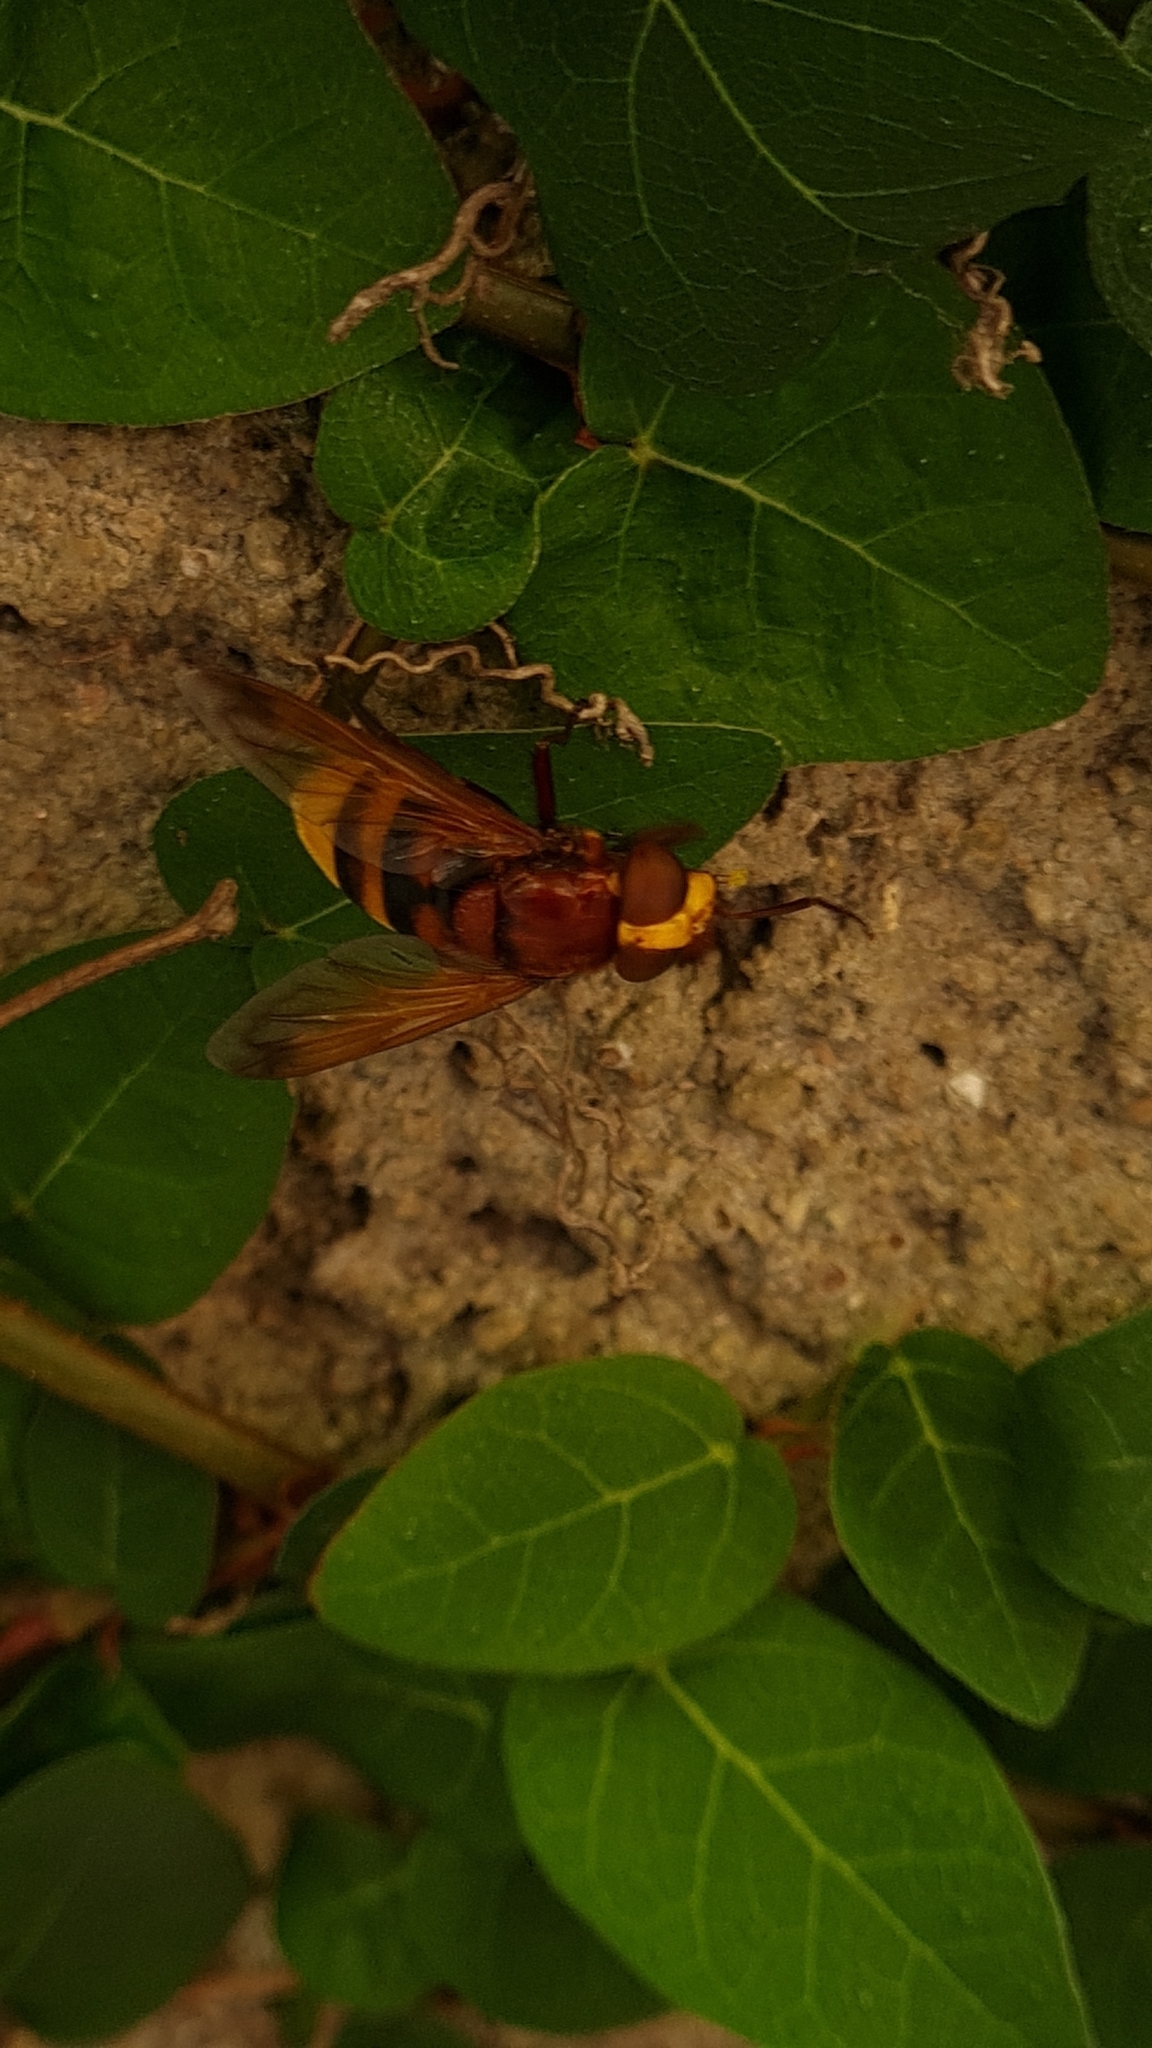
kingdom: Animalia
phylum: Arthropoda
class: Insecta
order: Diptera
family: Syrphidae
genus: Volucella
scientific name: Volucella zonaria
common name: Hornet hoverfly
